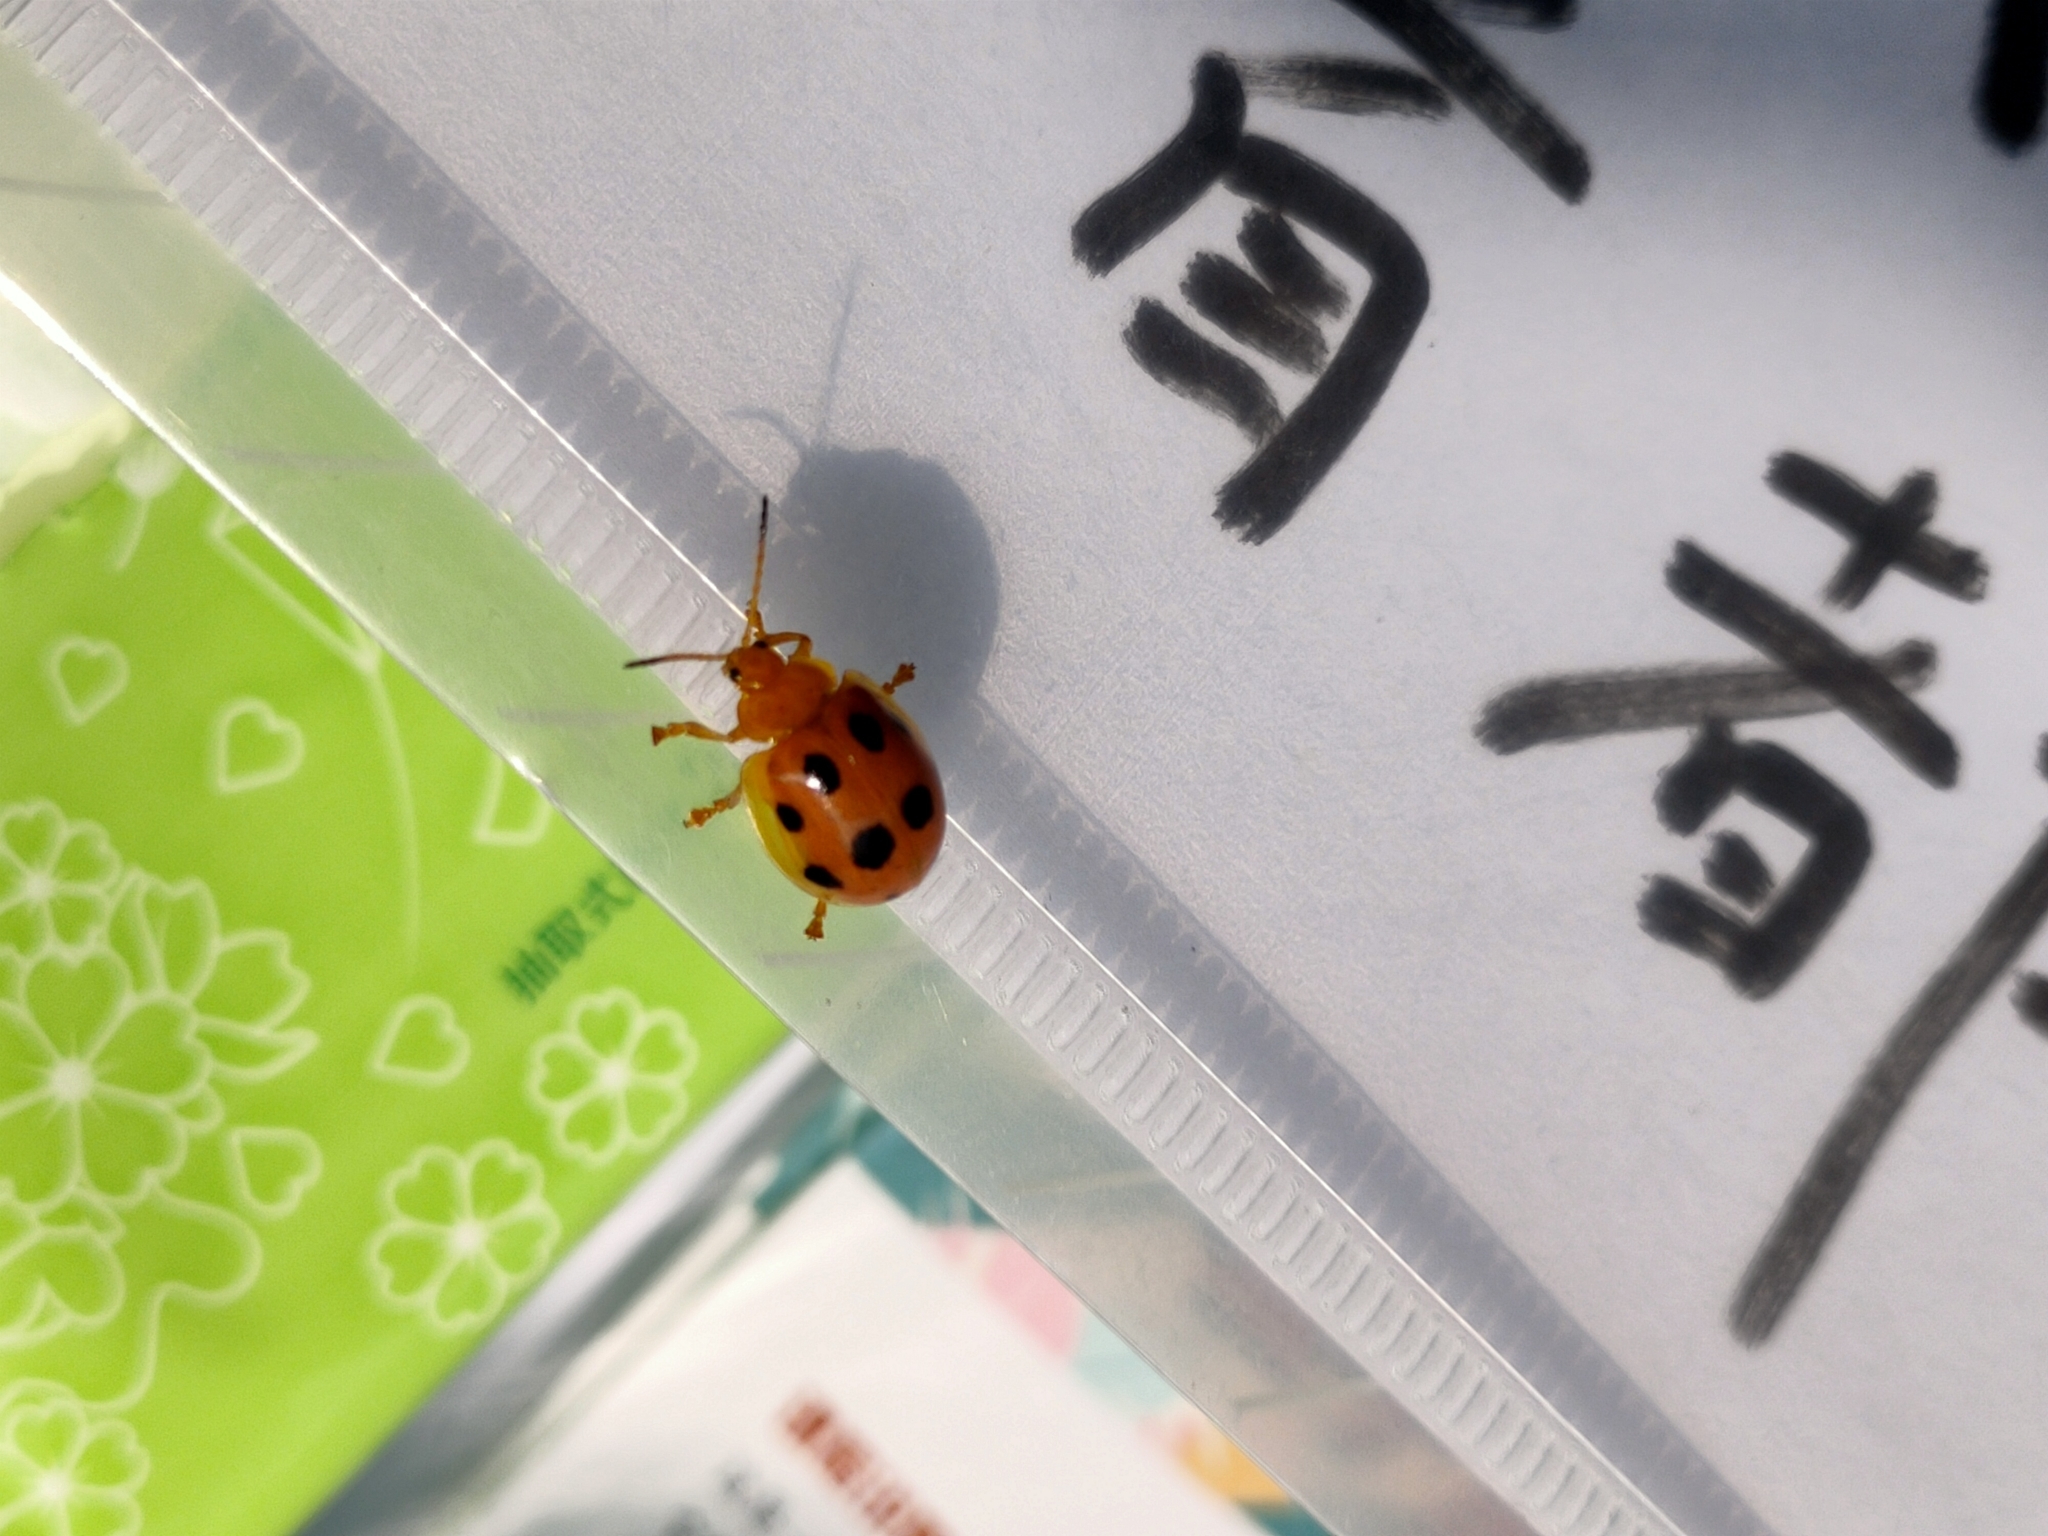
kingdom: Animalia
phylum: Arthropoda
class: Insecta
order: Coleoptera
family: Chrysomelidae
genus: Oides
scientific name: Oides decempunctata
